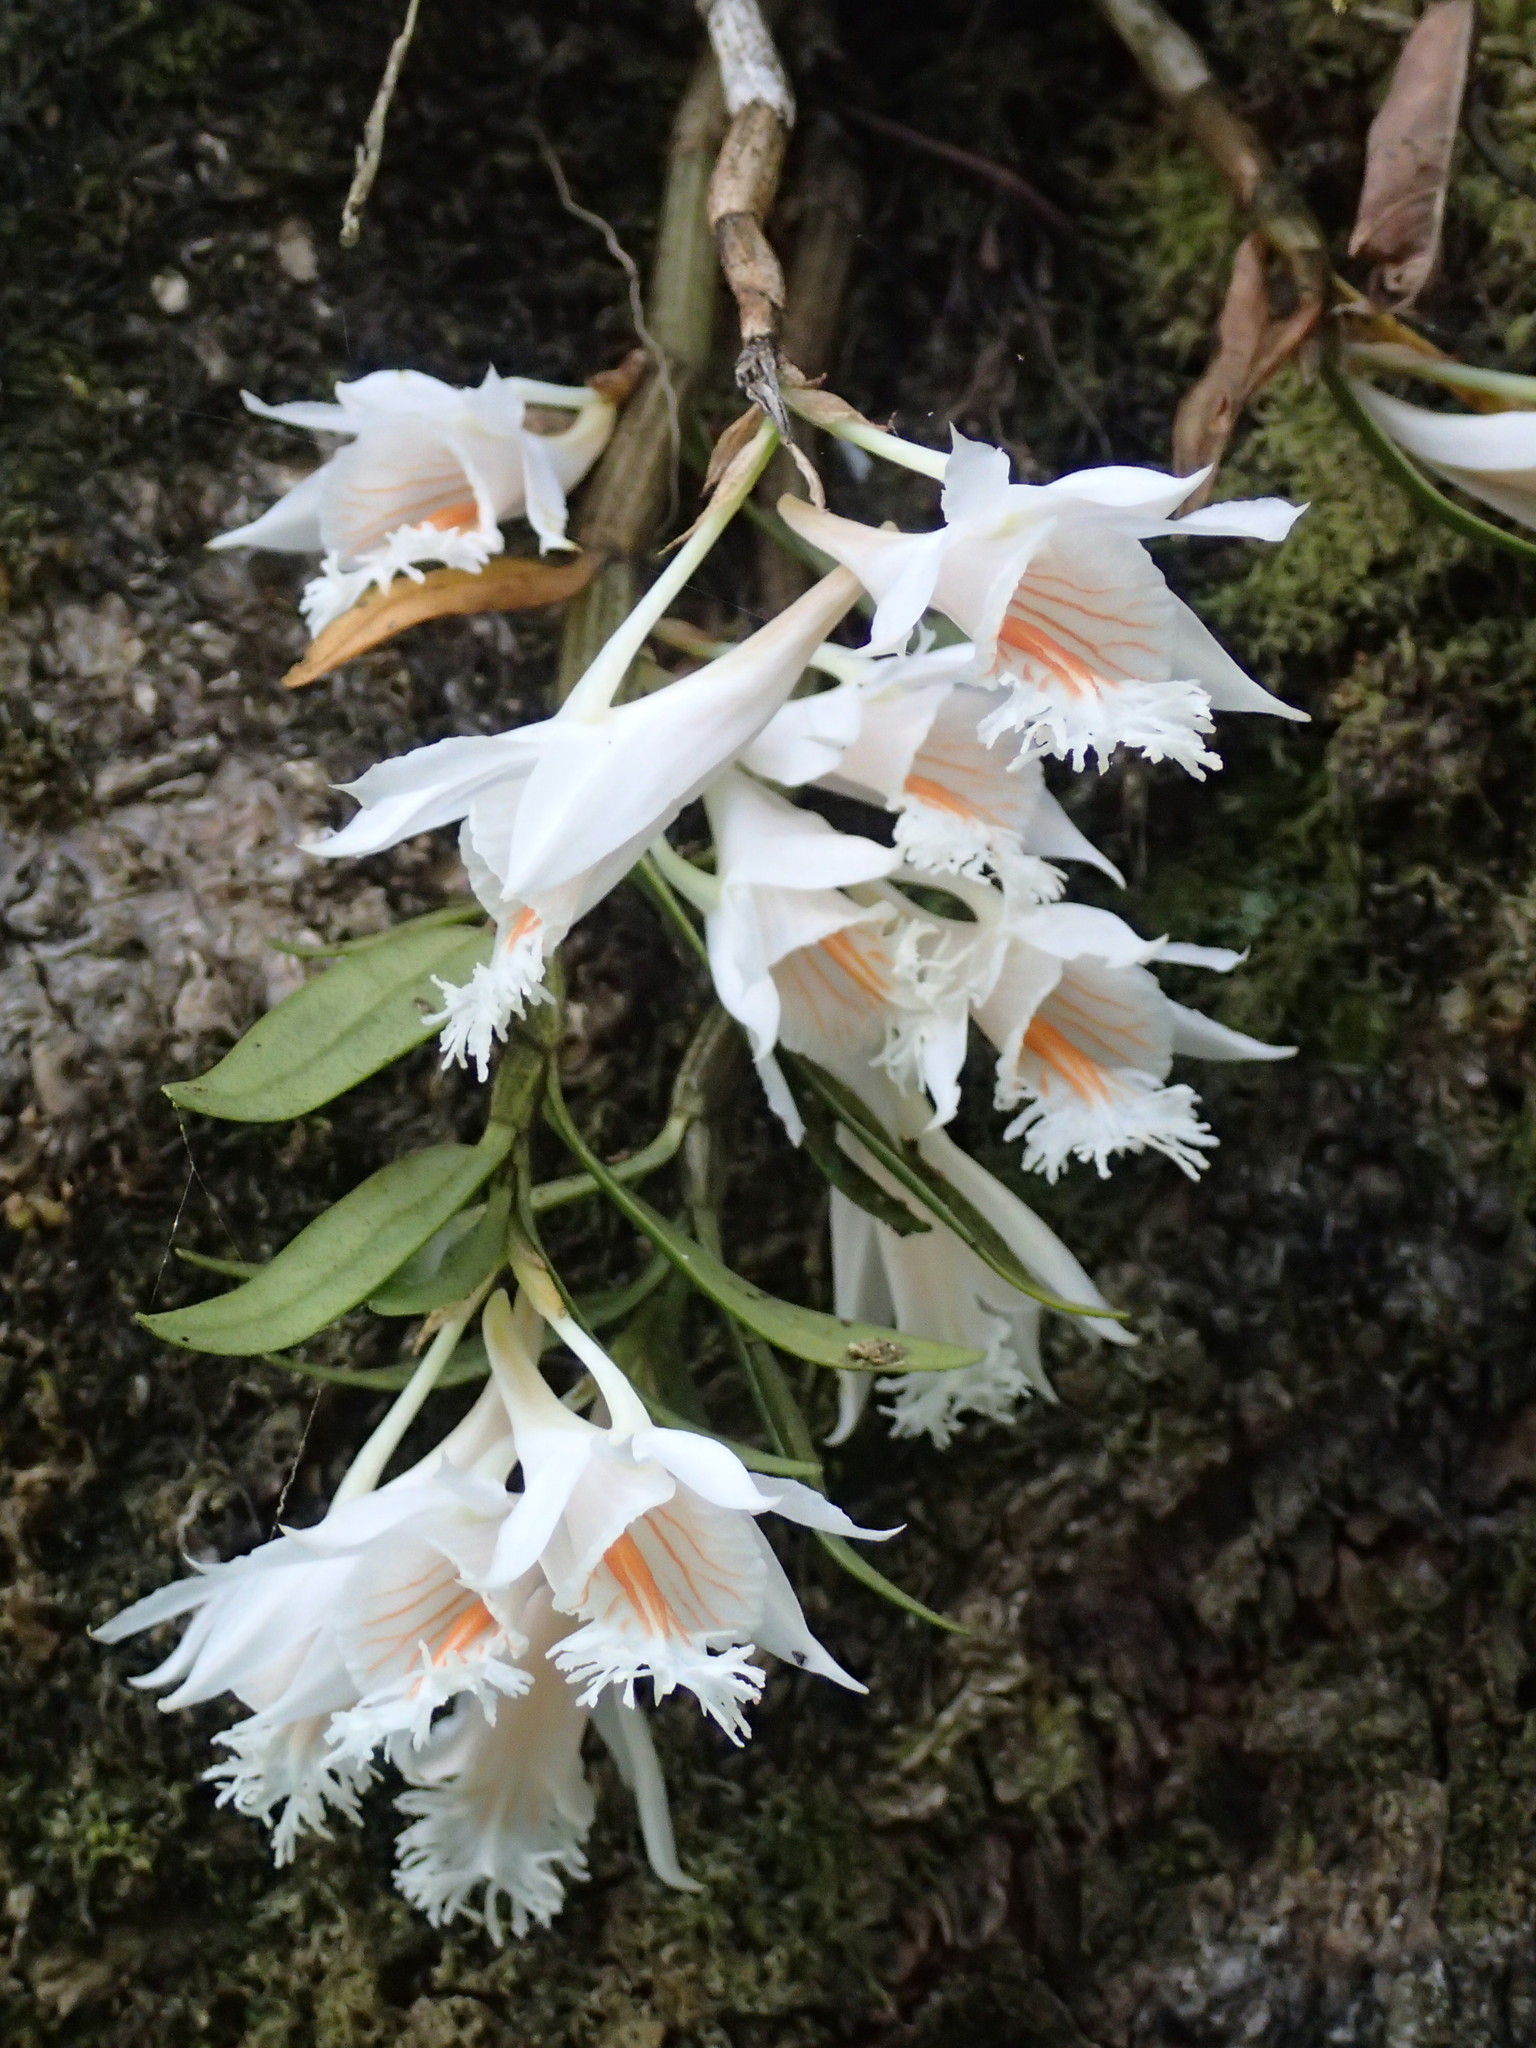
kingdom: Plantae
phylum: Tracheophyta
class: Liliopsida
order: Asparagales
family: Orchidaceae
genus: Dendrobium
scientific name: Dendrobium longicornu
